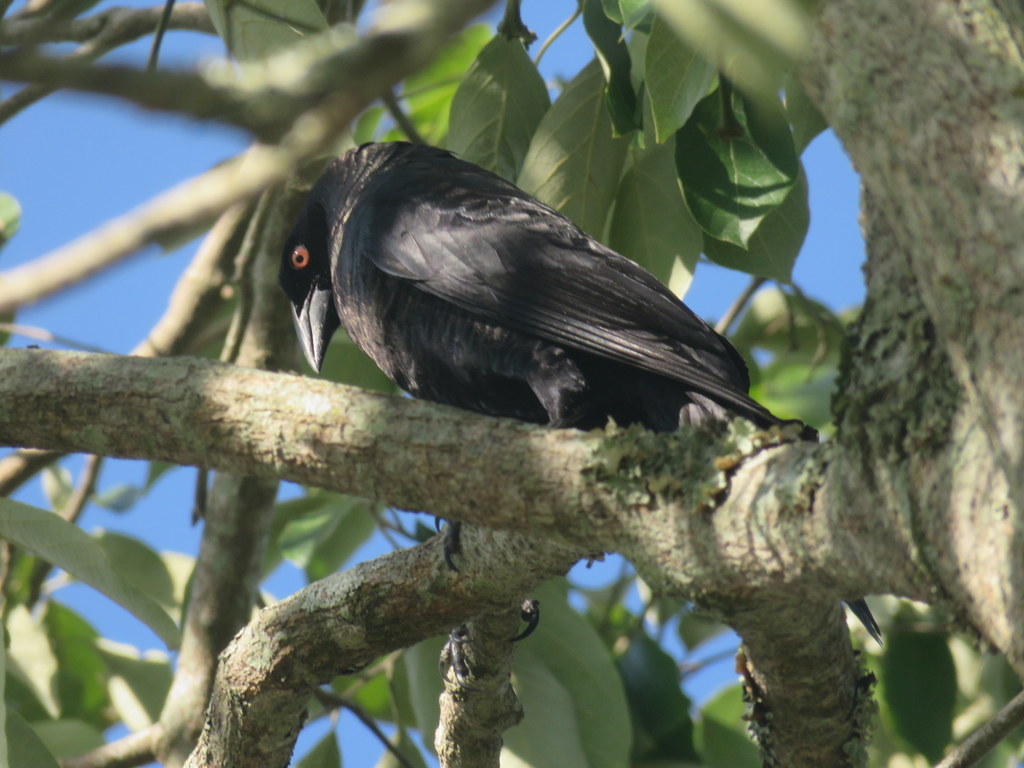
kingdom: Animalia
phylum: Chordata
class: Aves
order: Passeriformes
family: Icteridae
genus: Molothrus
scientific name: Molothrus oryzivorus
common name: Giant cowbird
